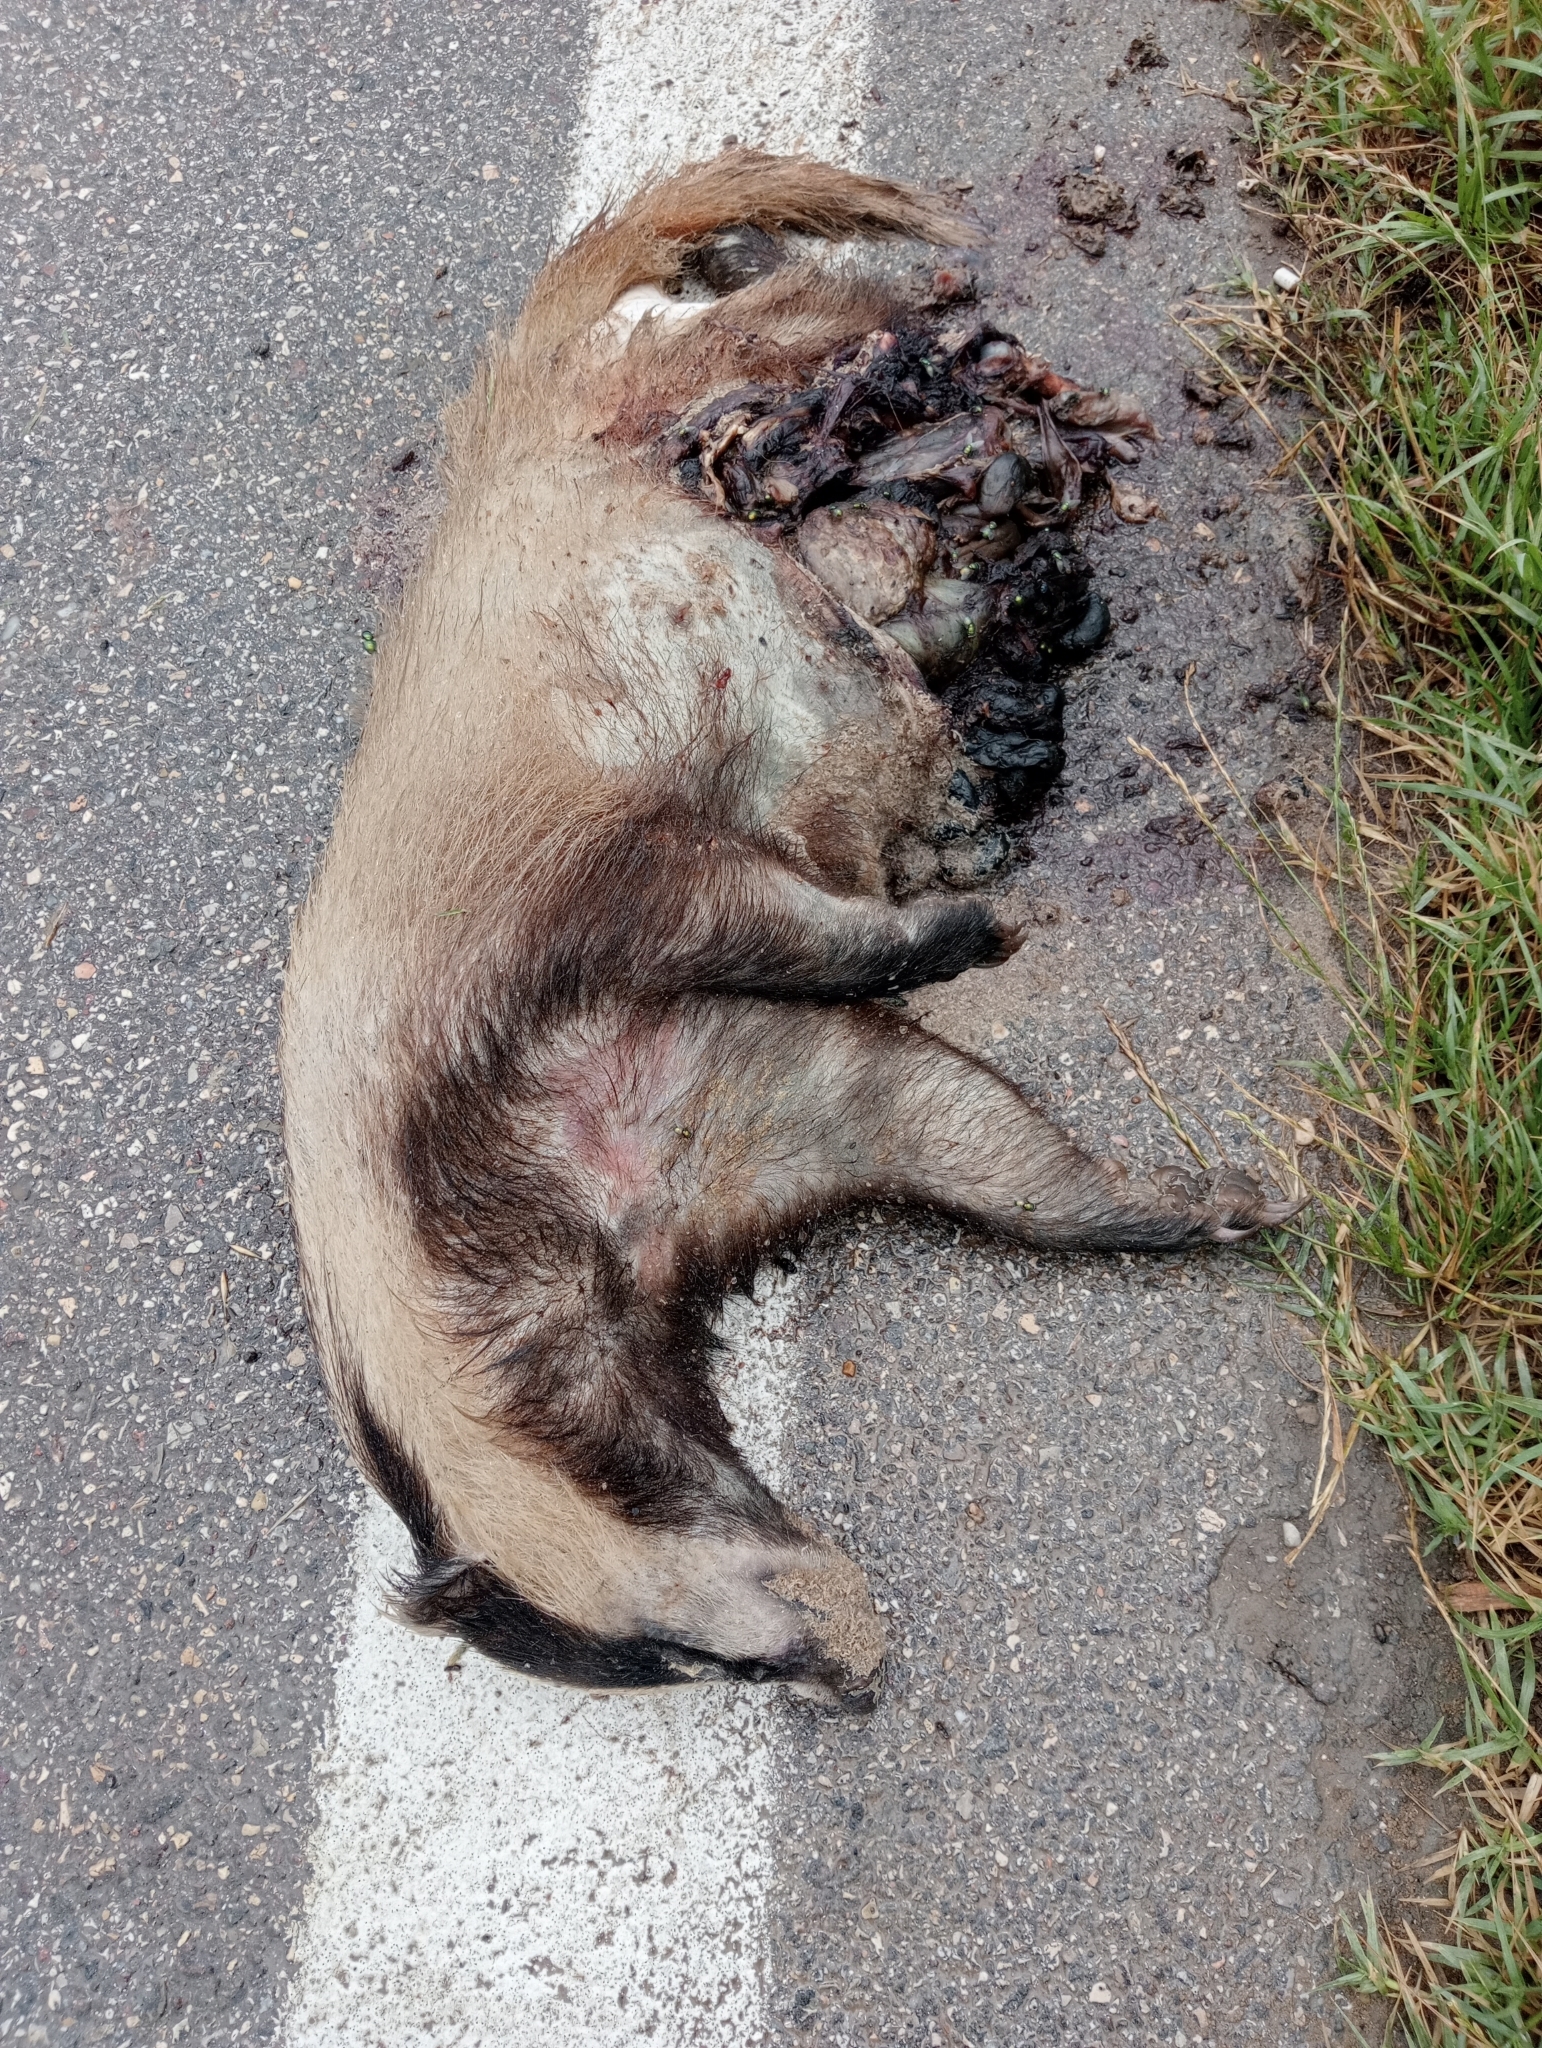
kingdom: Animalia
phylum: Chordata
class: Mammalia
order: Carnivora
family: Mustelidae
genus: Meles
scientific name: Meles meles
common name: Eurasian badger
